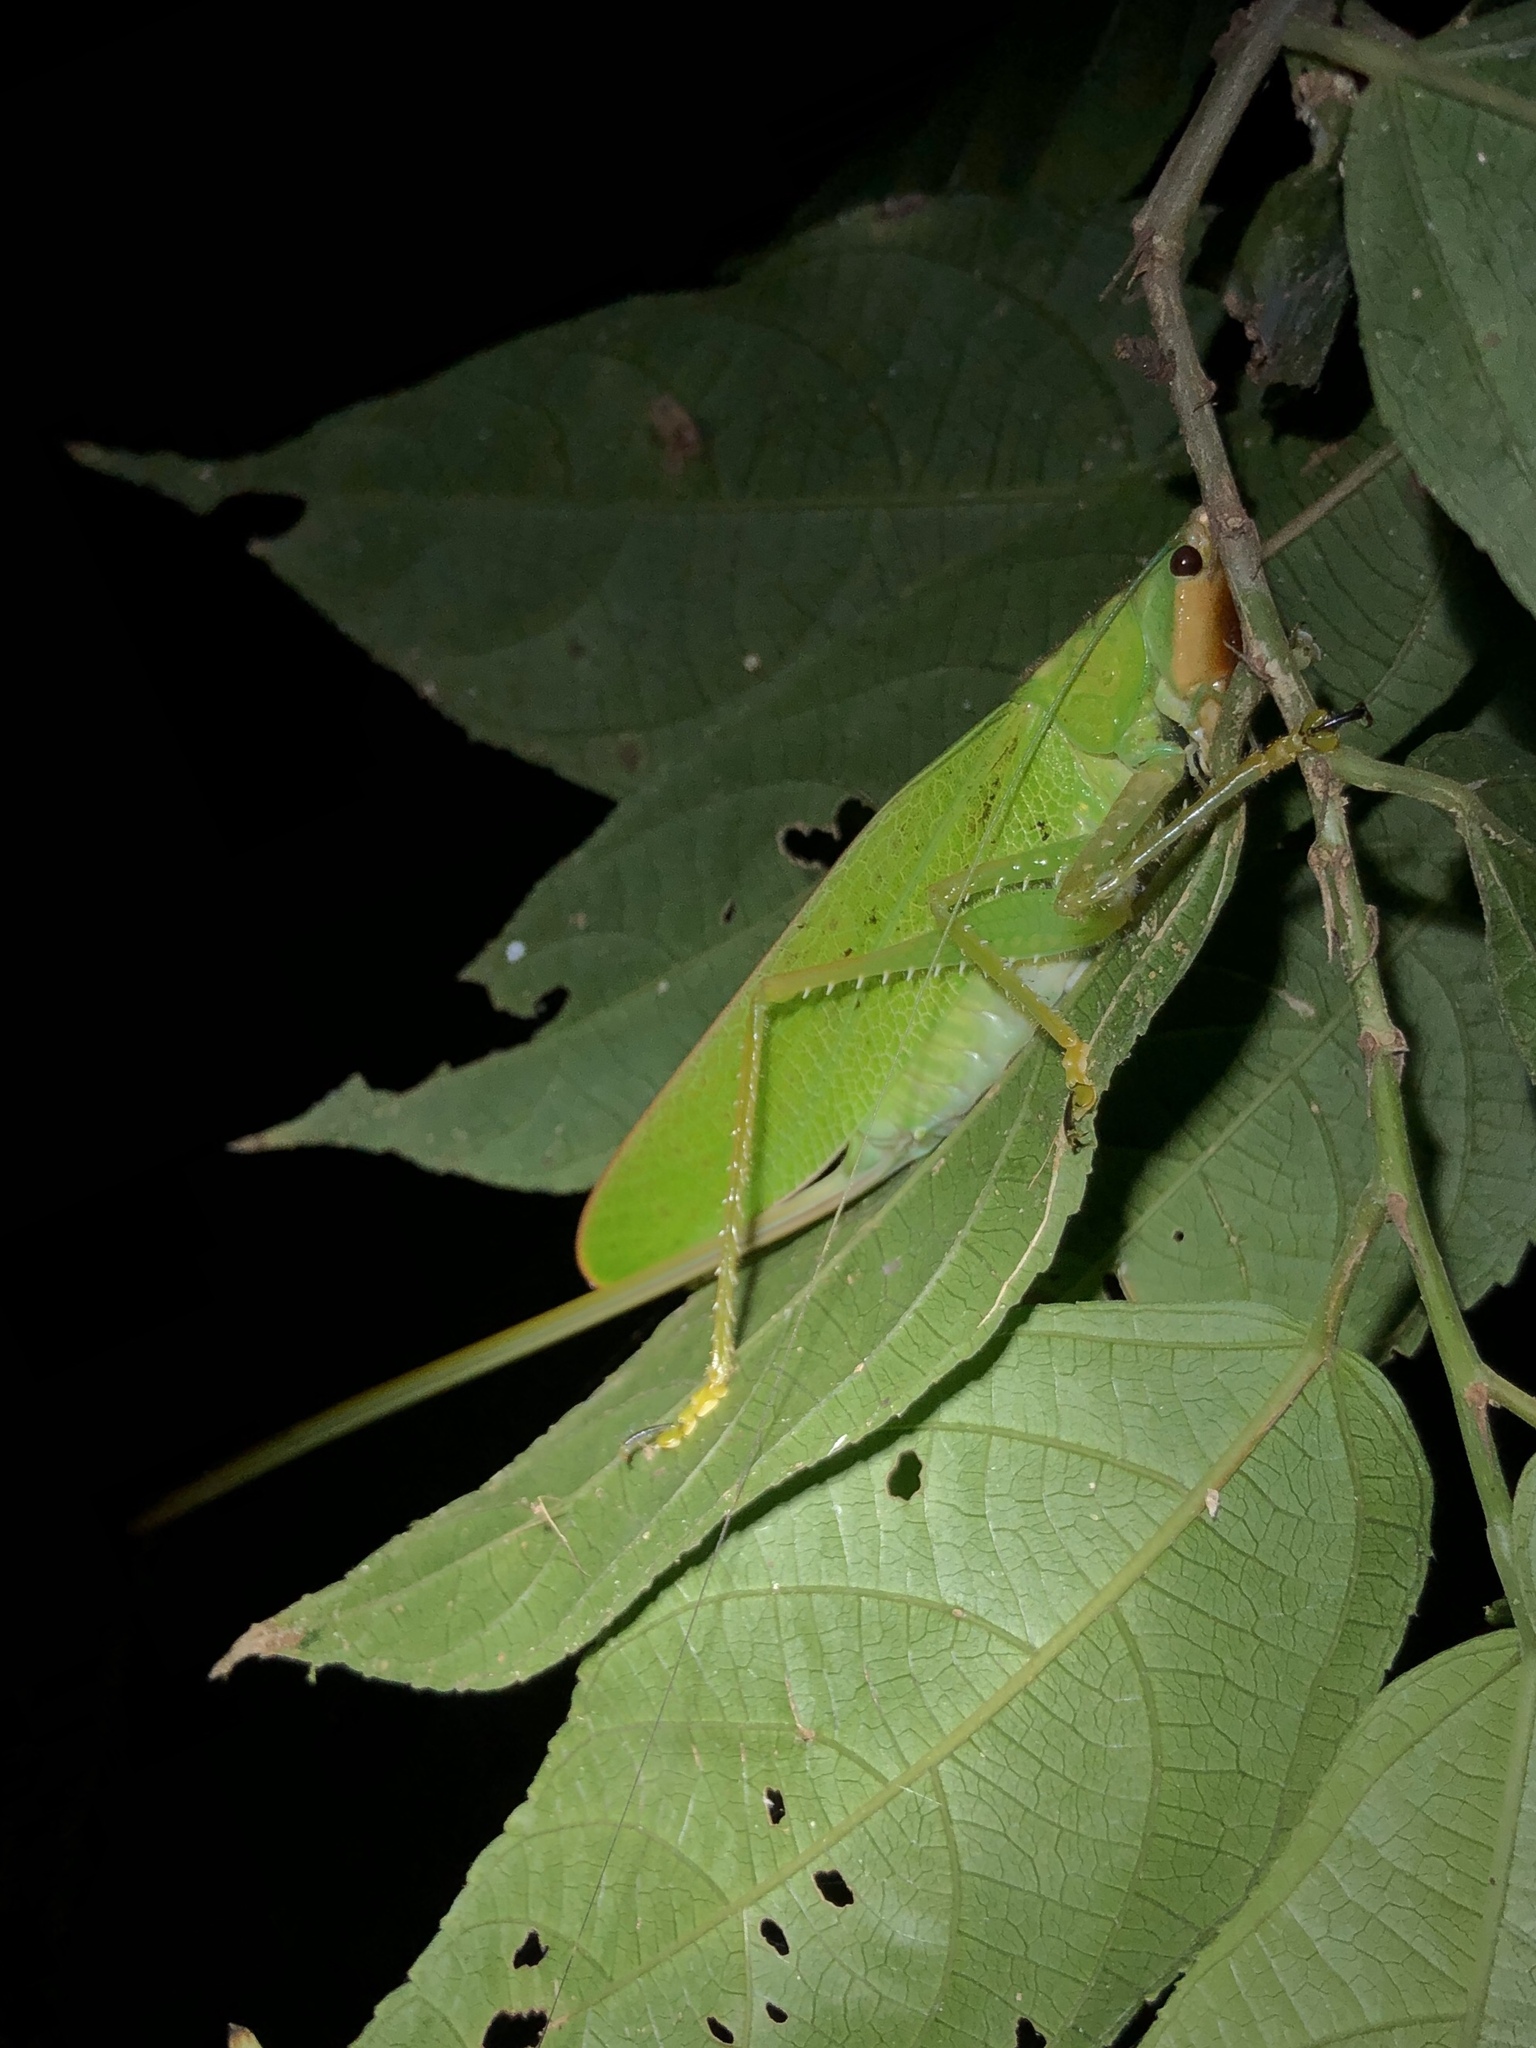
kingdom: Animalia
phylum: Arthropoda
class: Insecta
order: Orthoptera
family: Tettigoniidae
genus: Copiphora
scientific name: Copiphora brevirostris
